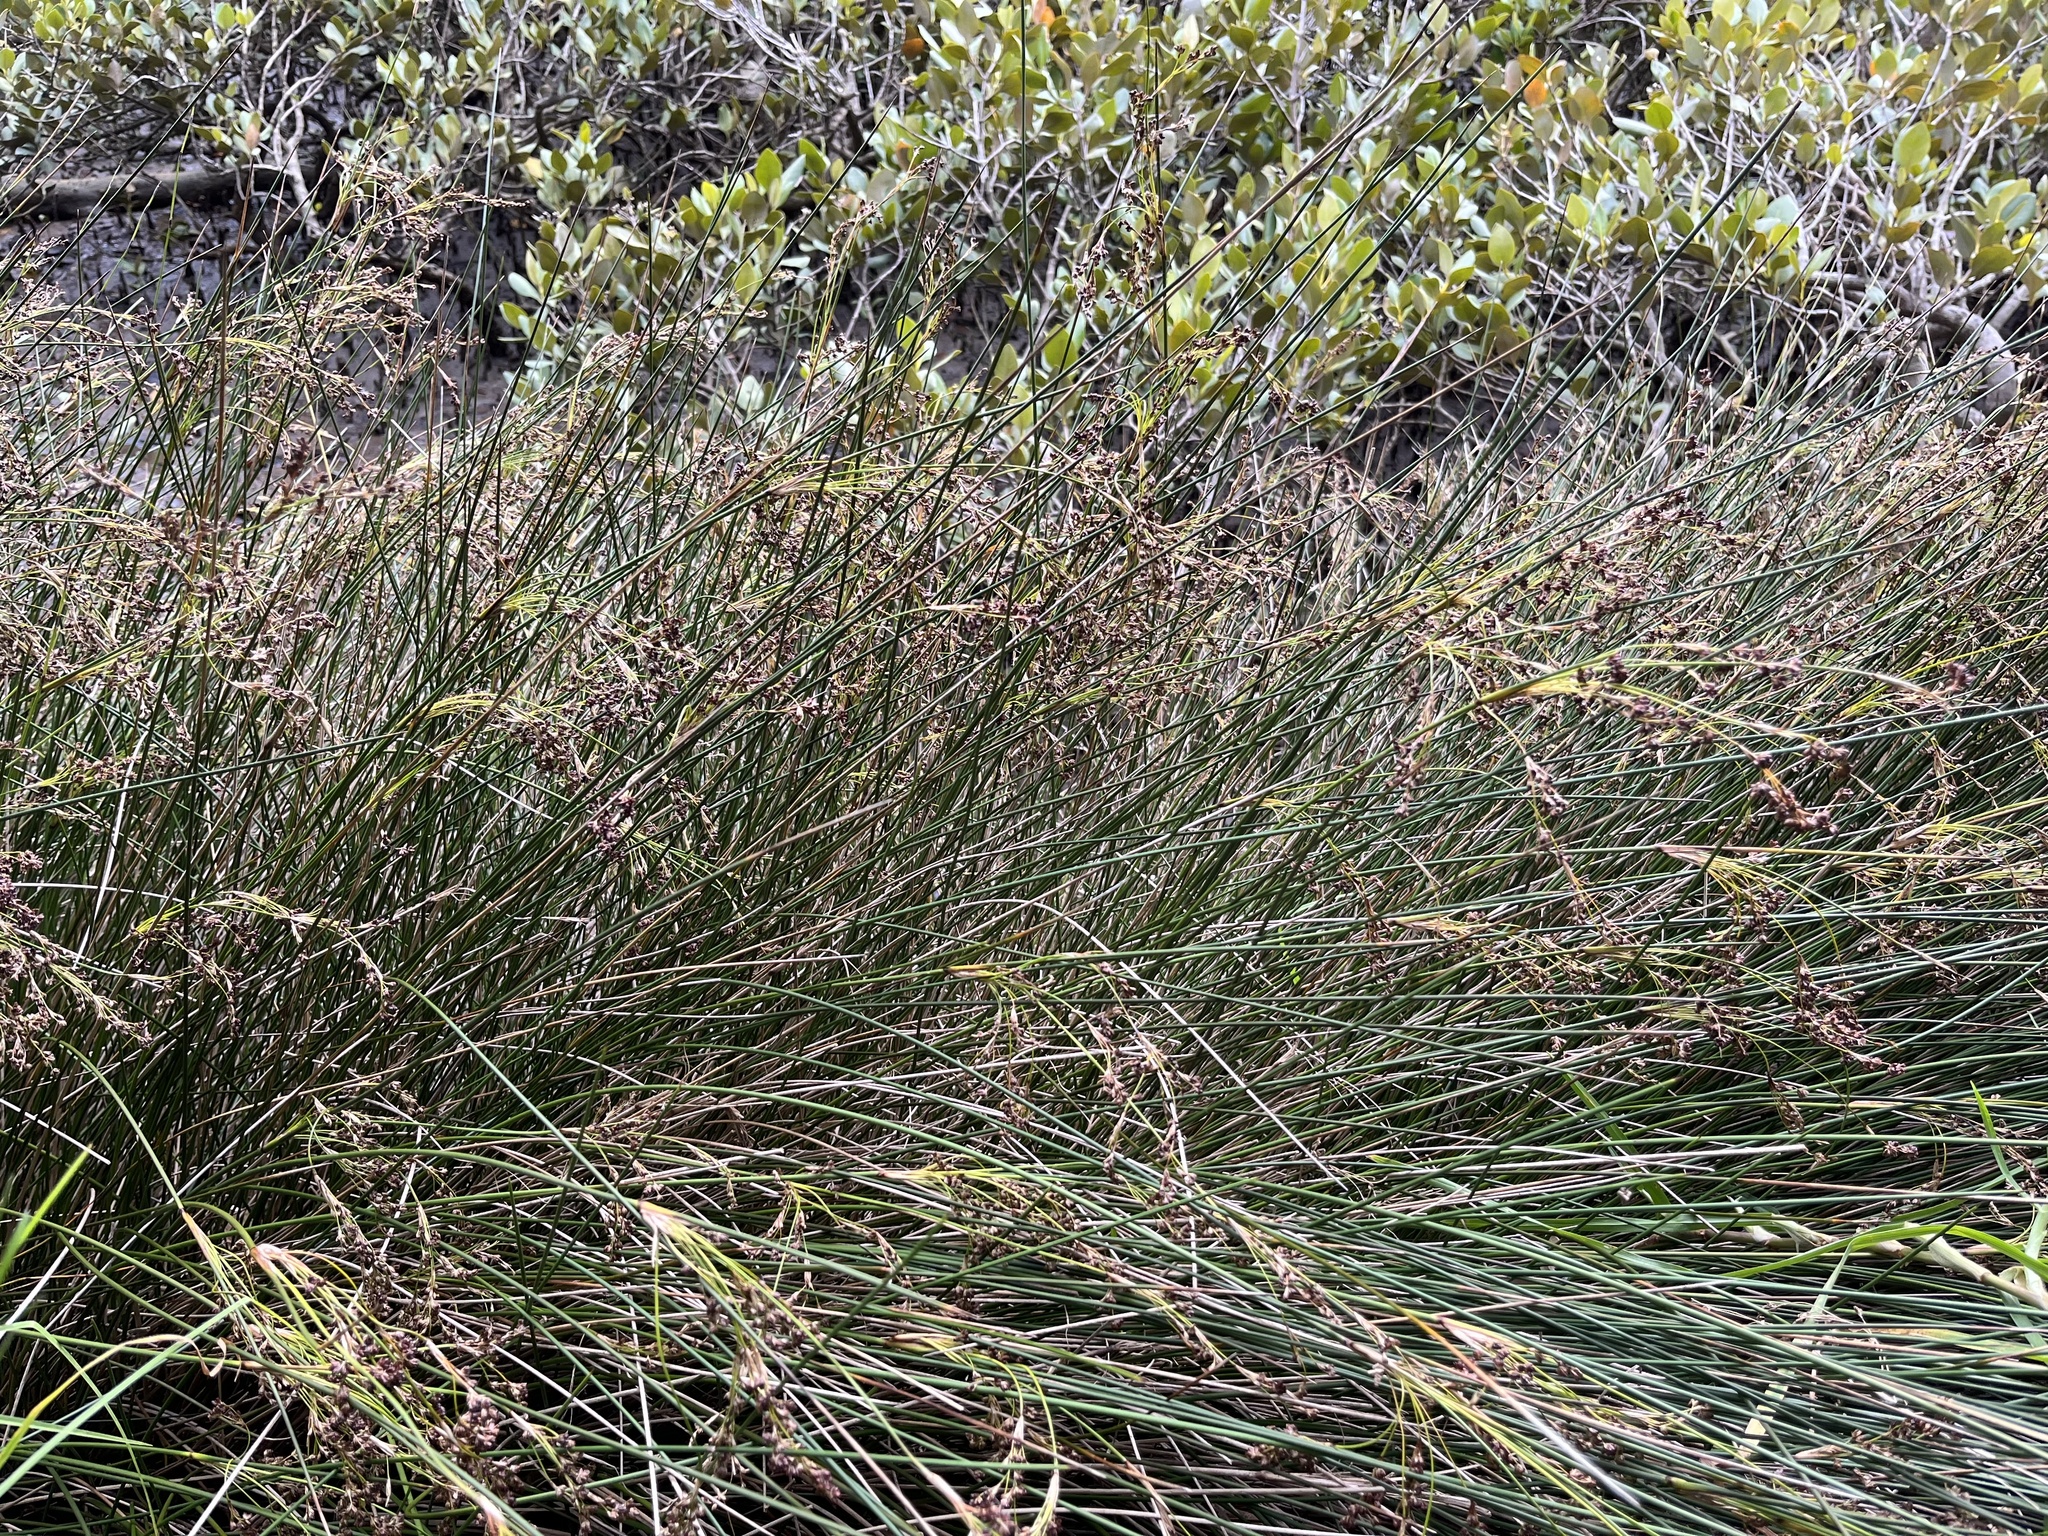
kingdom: Plantae
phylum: Tracheophyta
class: Liliopsida
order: Poales
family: Juncaceae
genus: Juncus
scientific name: Juncus kraussii
